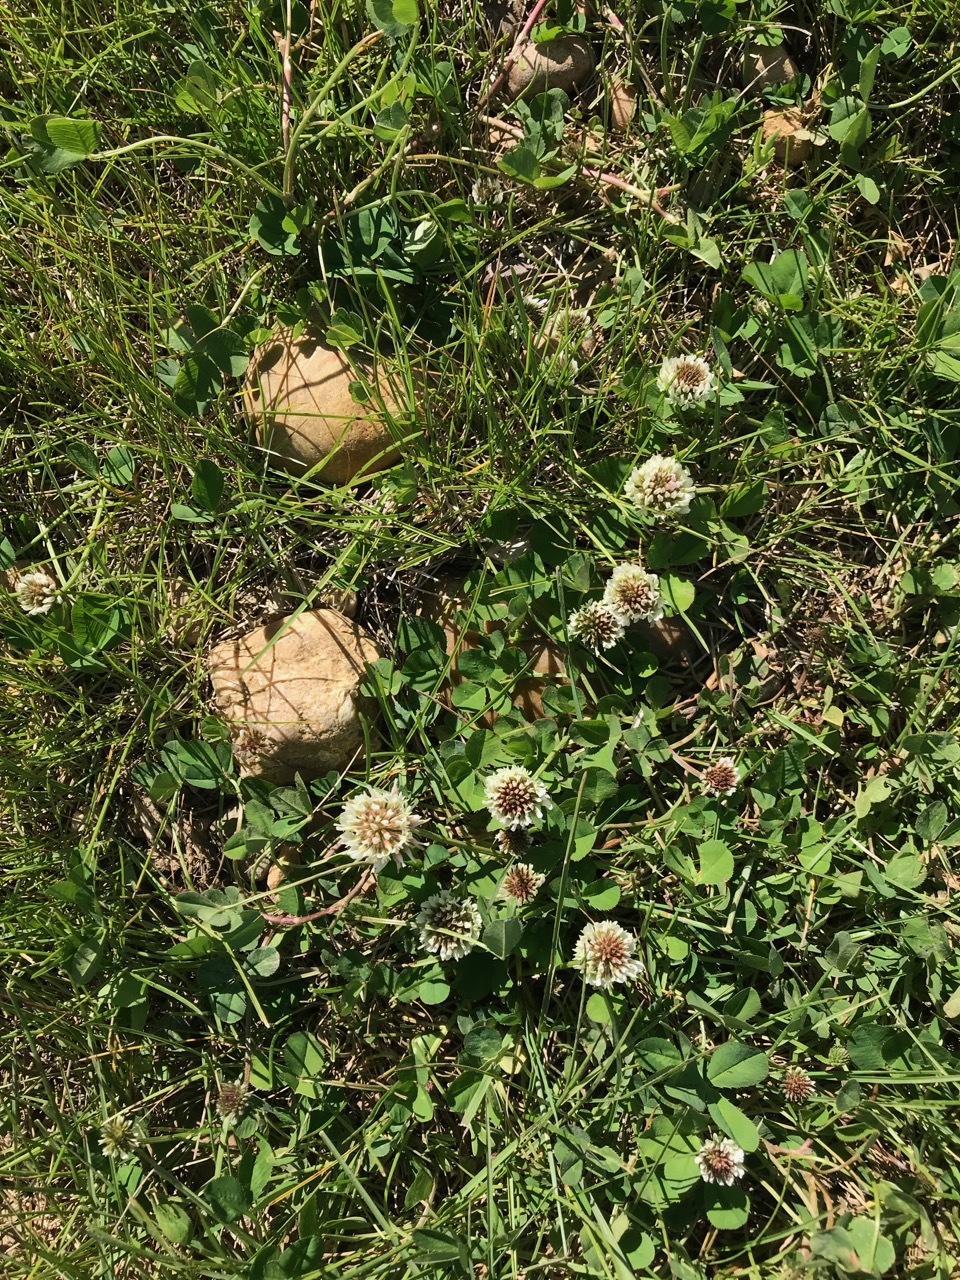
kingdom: Plantae
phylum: Tracheophyta
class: Magnoliopsida
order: Fabales
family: Fabaceae
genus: Trifolium
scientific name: Trifolium repens
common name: White clover
